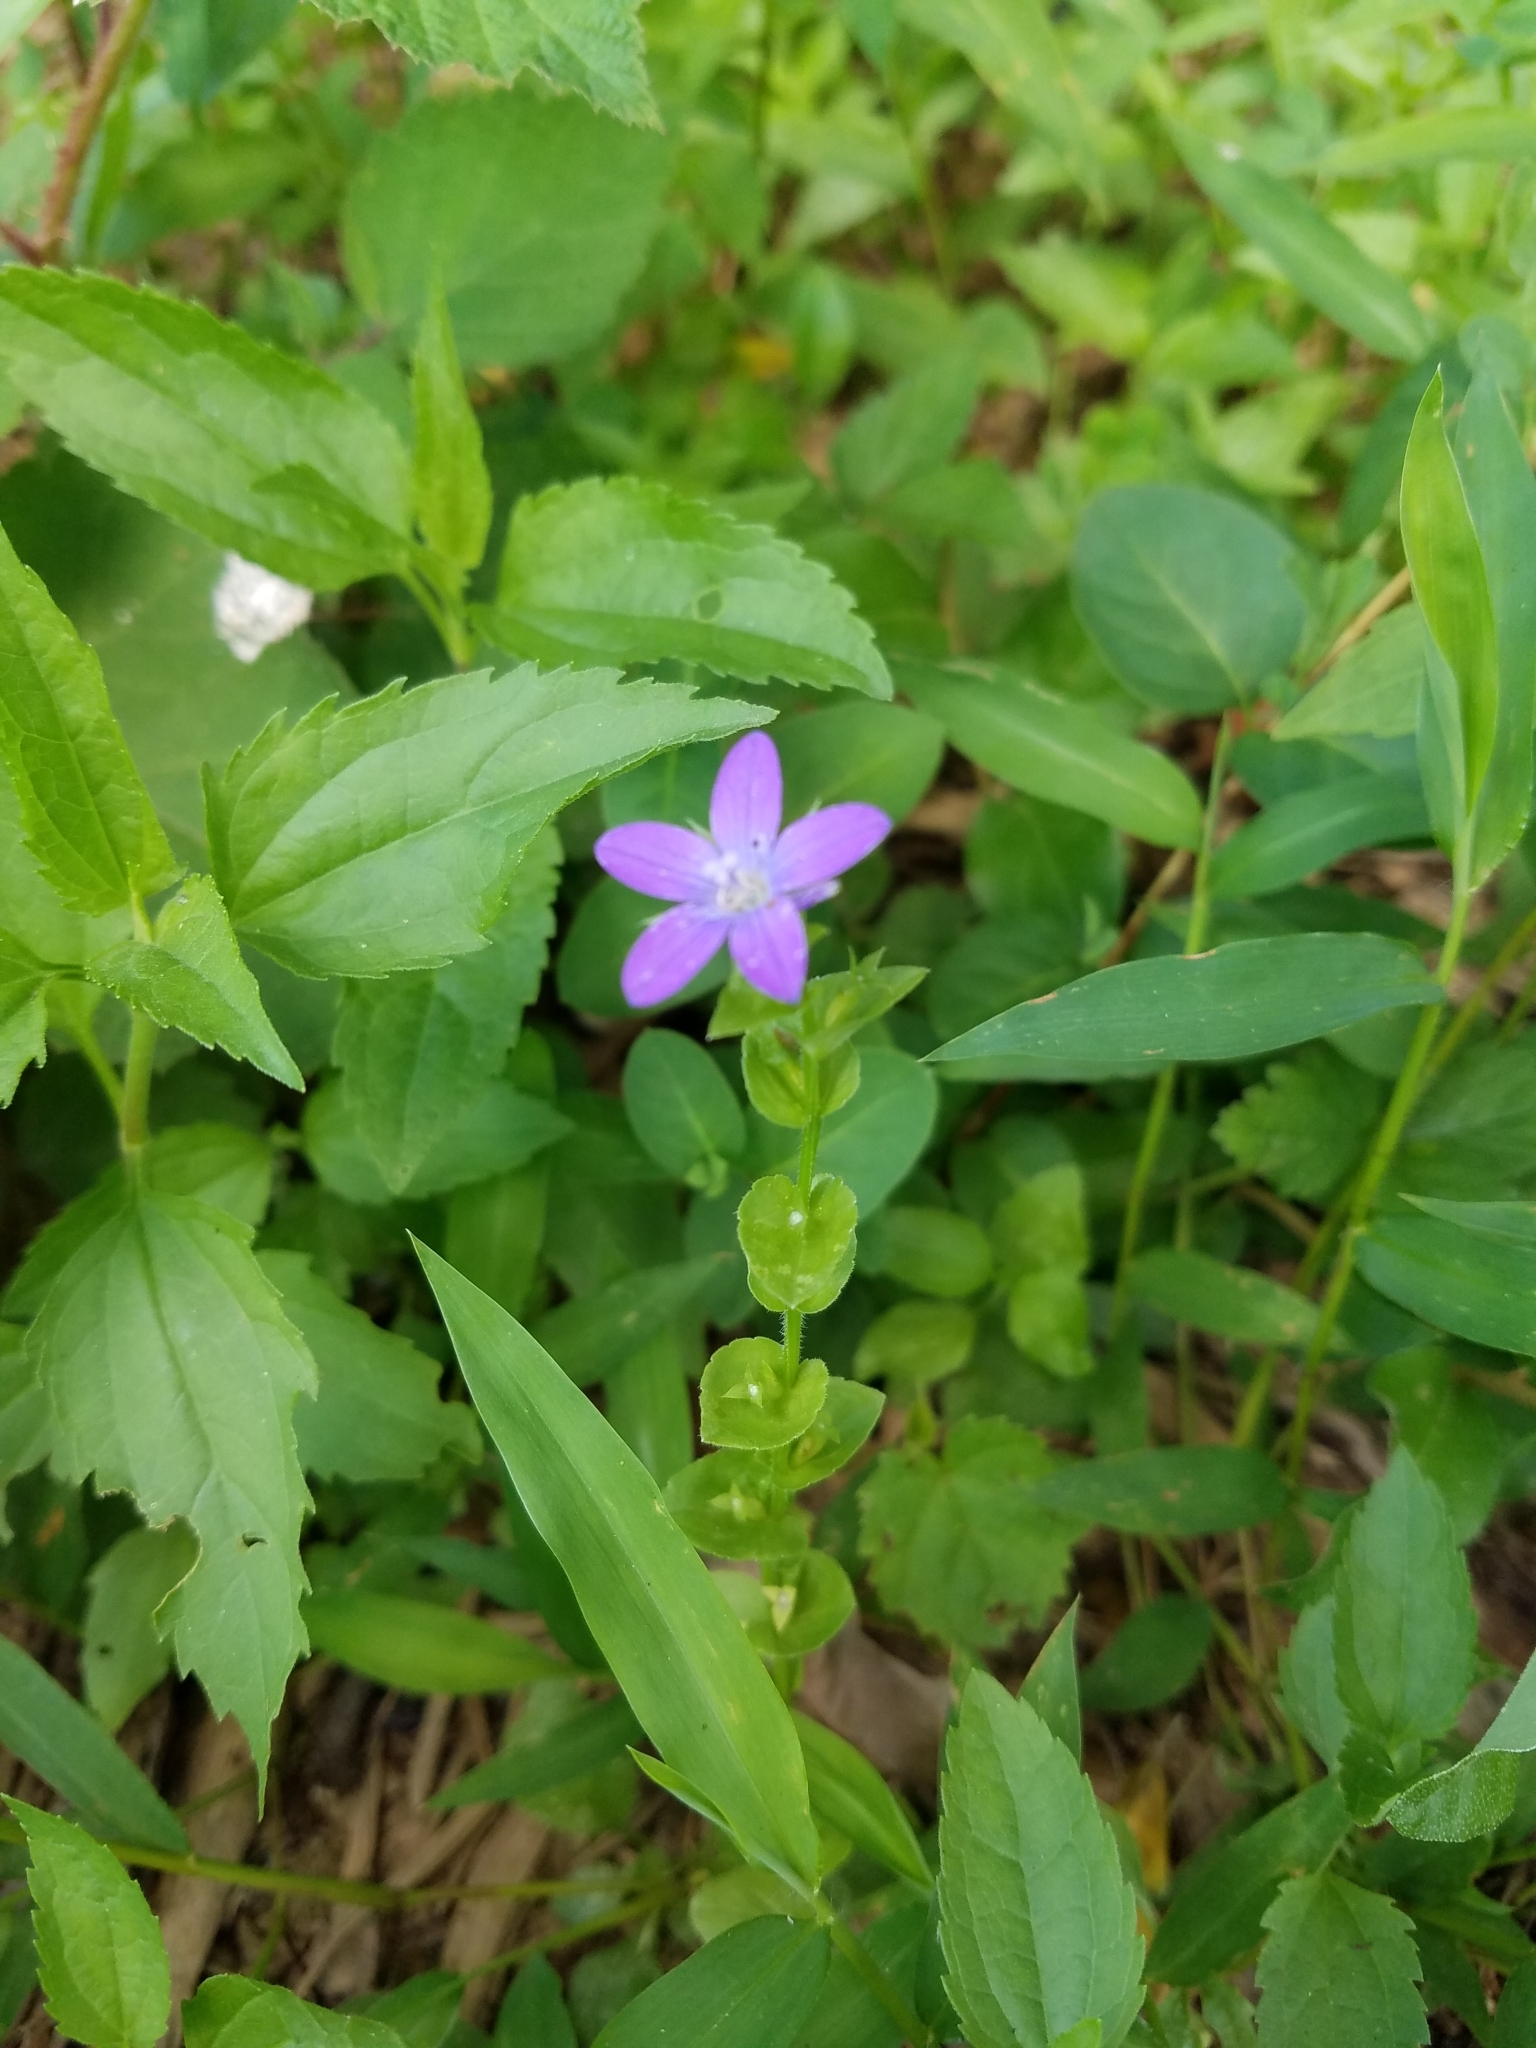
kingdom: Plantae
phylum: Tracheophyta
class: Magnoliopsida
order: Asterales
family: Campanulaceae
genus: Triodanis
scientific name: Triodanis perfoliata
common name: Clasping venus' looking-glass
